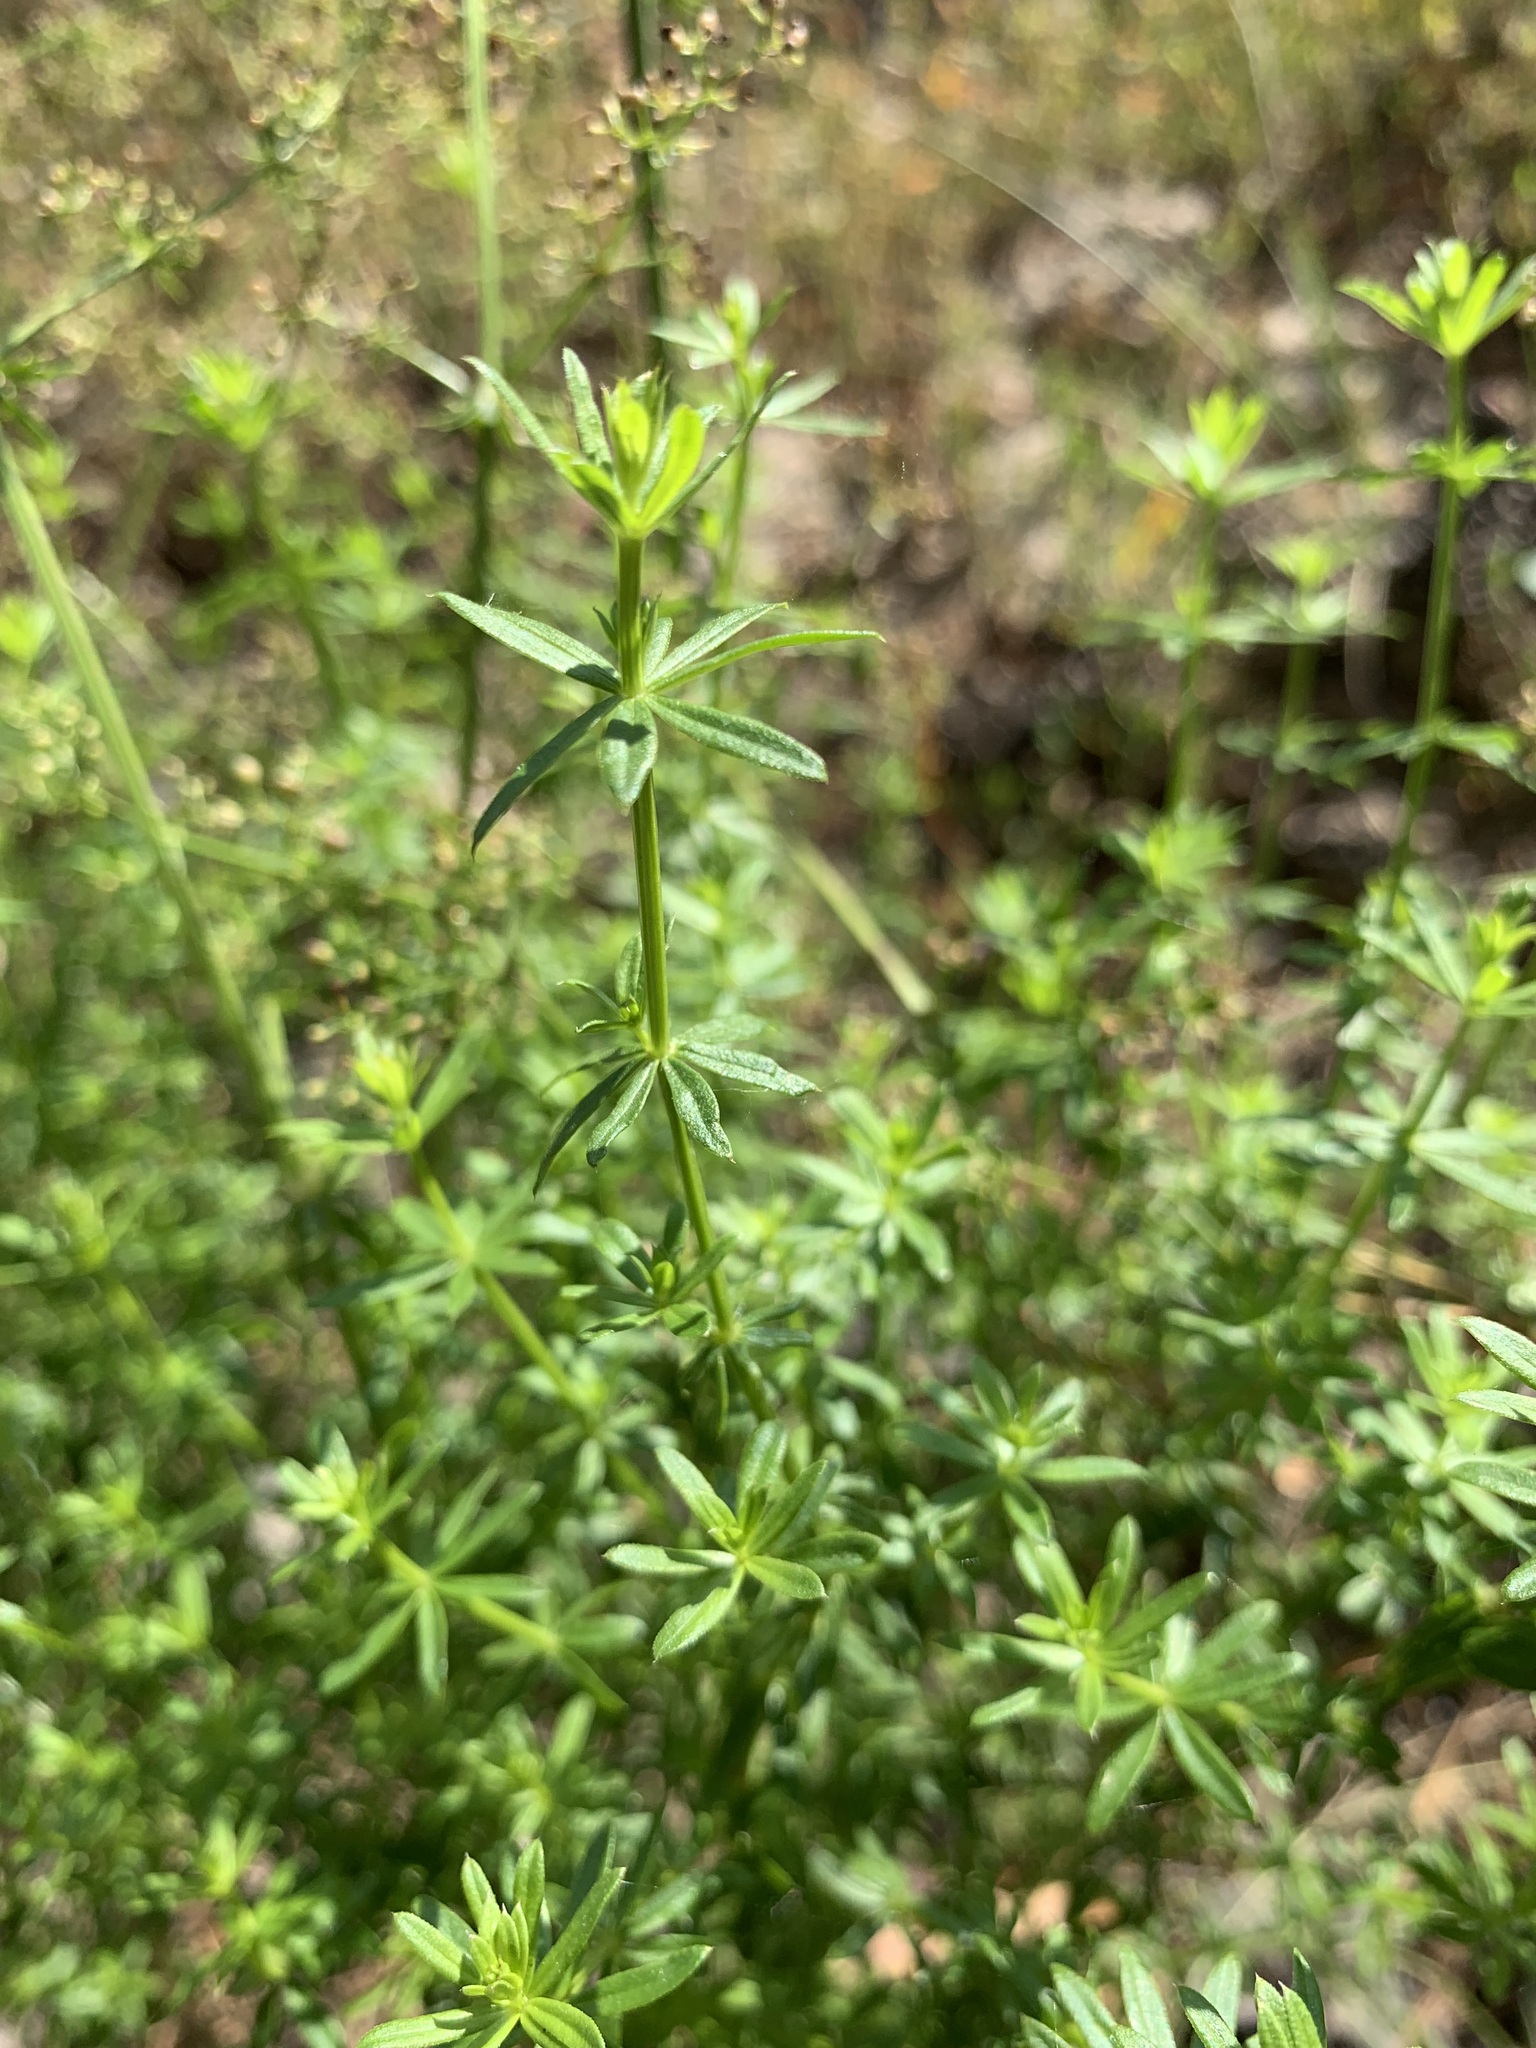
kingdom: Plantae
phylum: Tracheophyta
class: Magnoliopsida
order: Gentianales
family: Rubiaceae
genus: Galium
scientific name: Galium mollugo
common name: Hedge bedstraw
